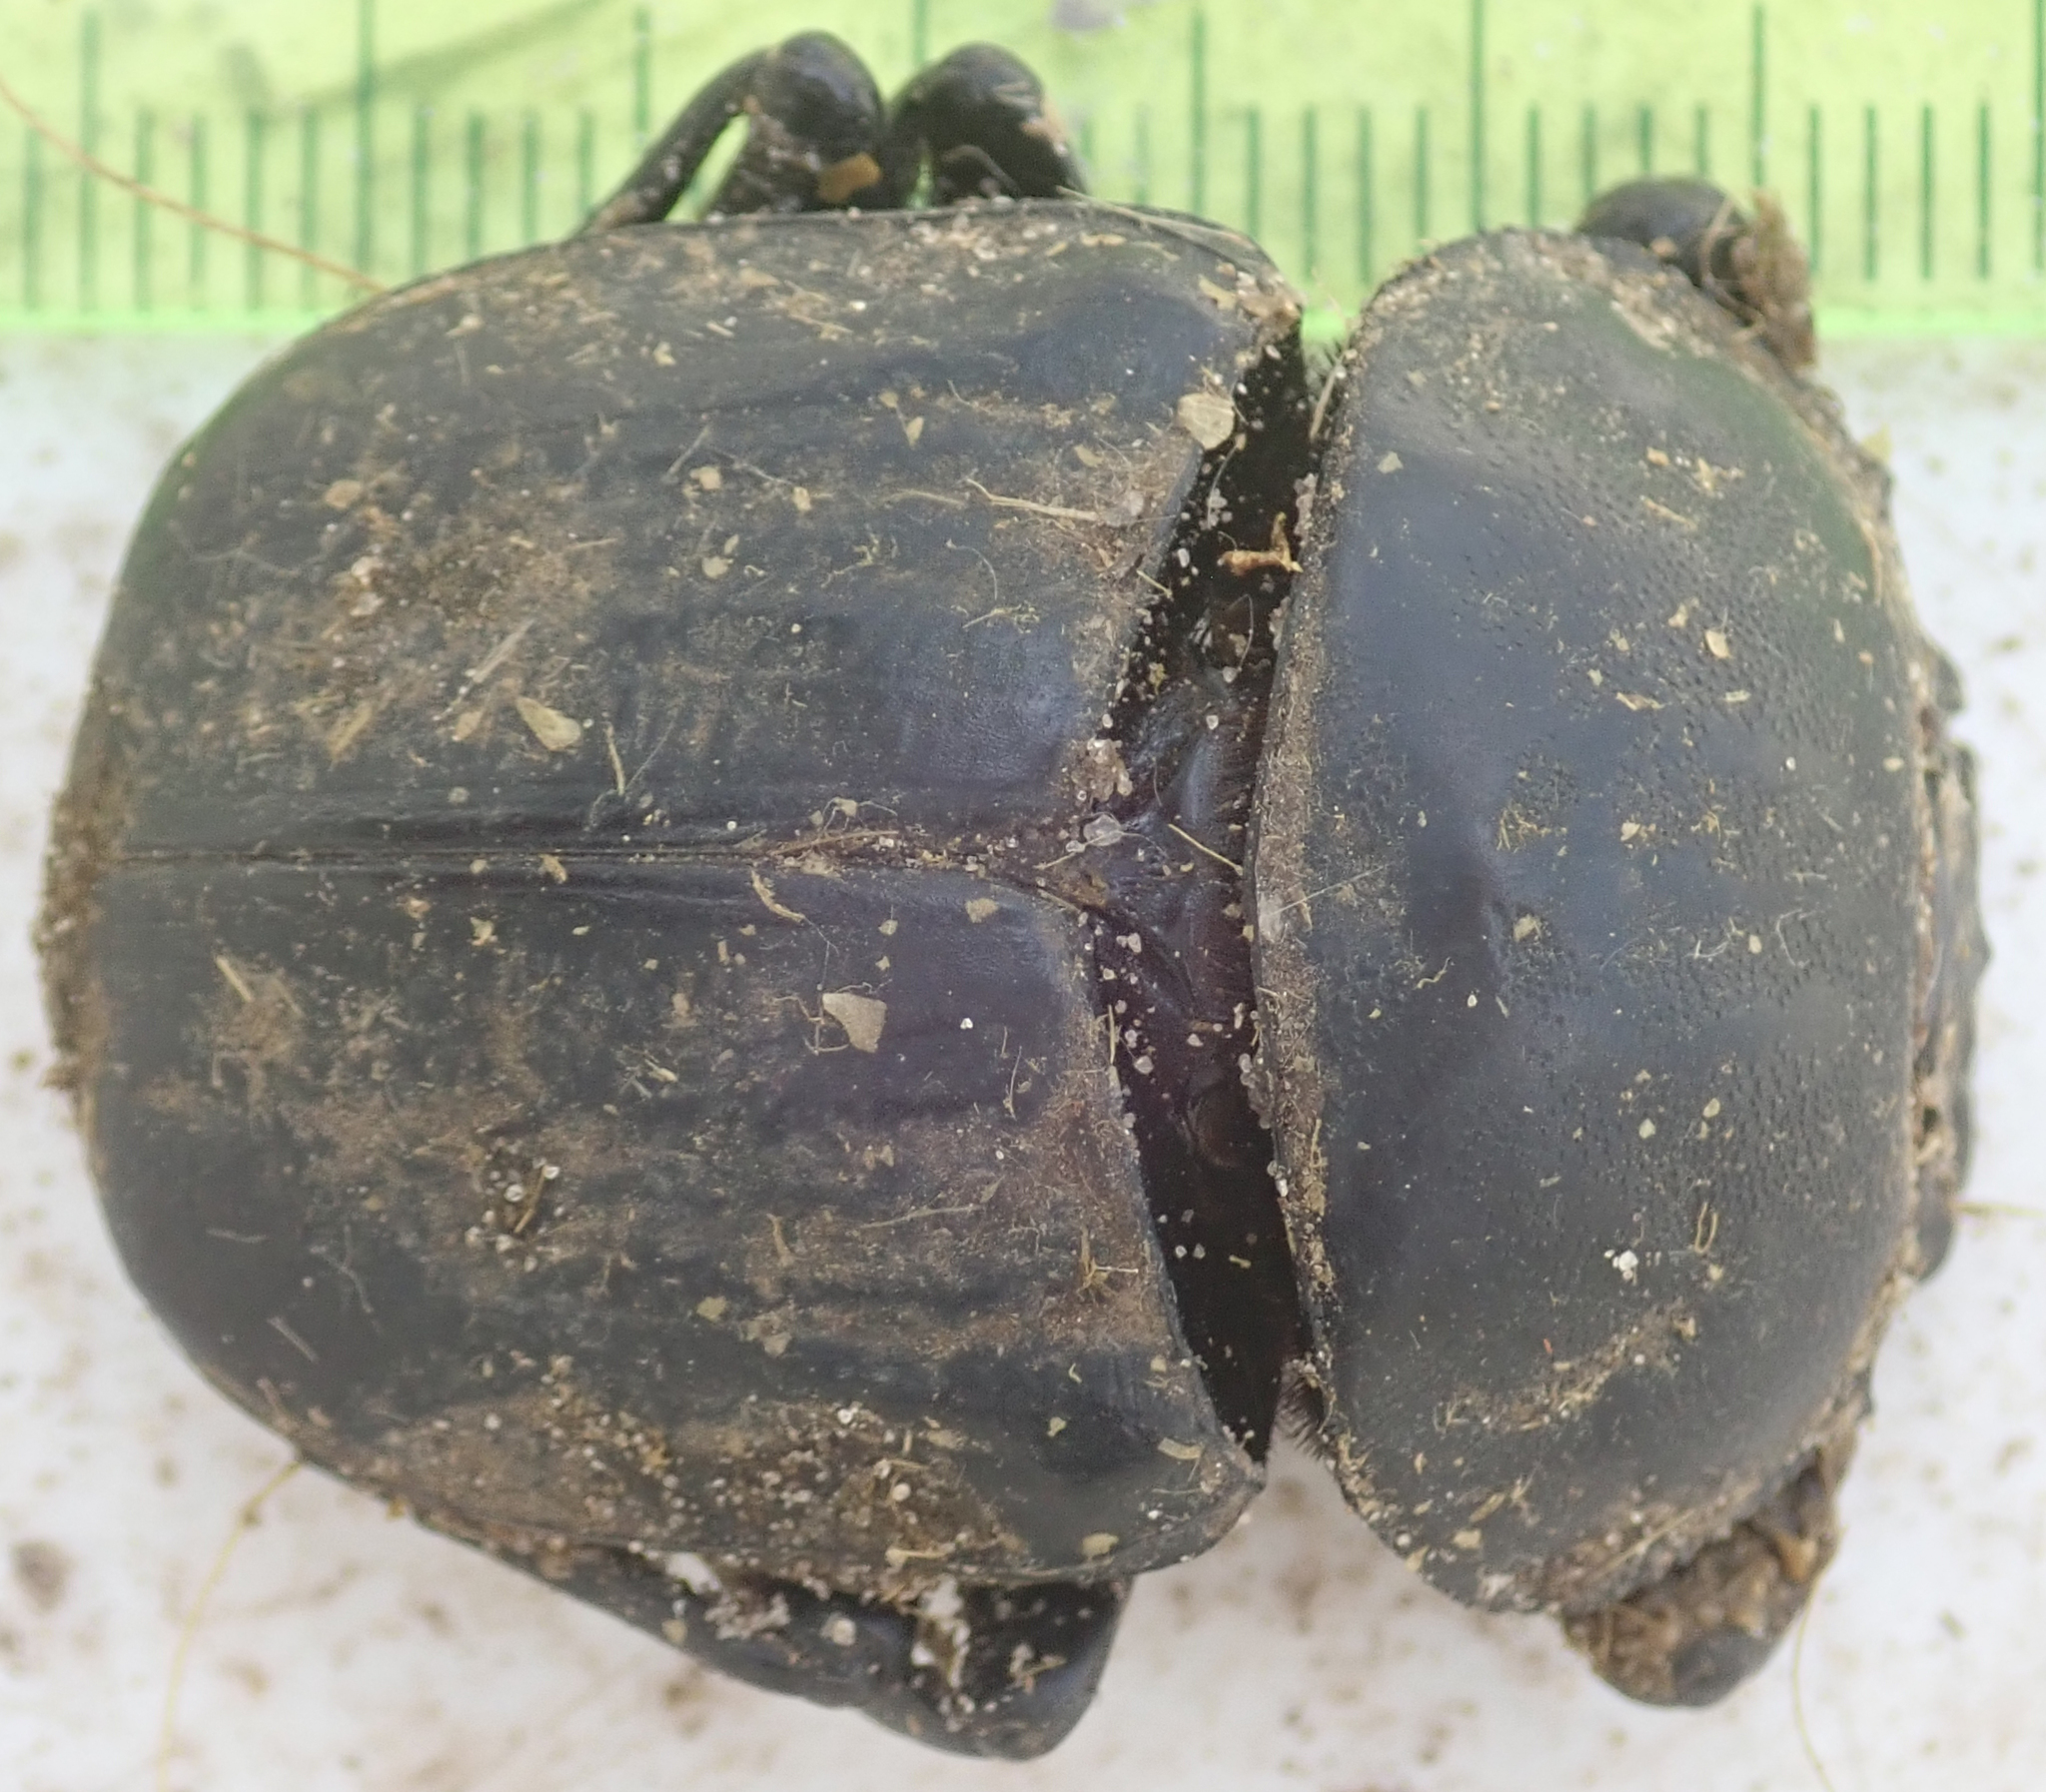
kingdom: Animalia
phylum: Arthropoda
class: Insecta
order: Coleoptera
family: Scarabaeidae
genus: Kheper
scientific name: Kheper lamarcki
